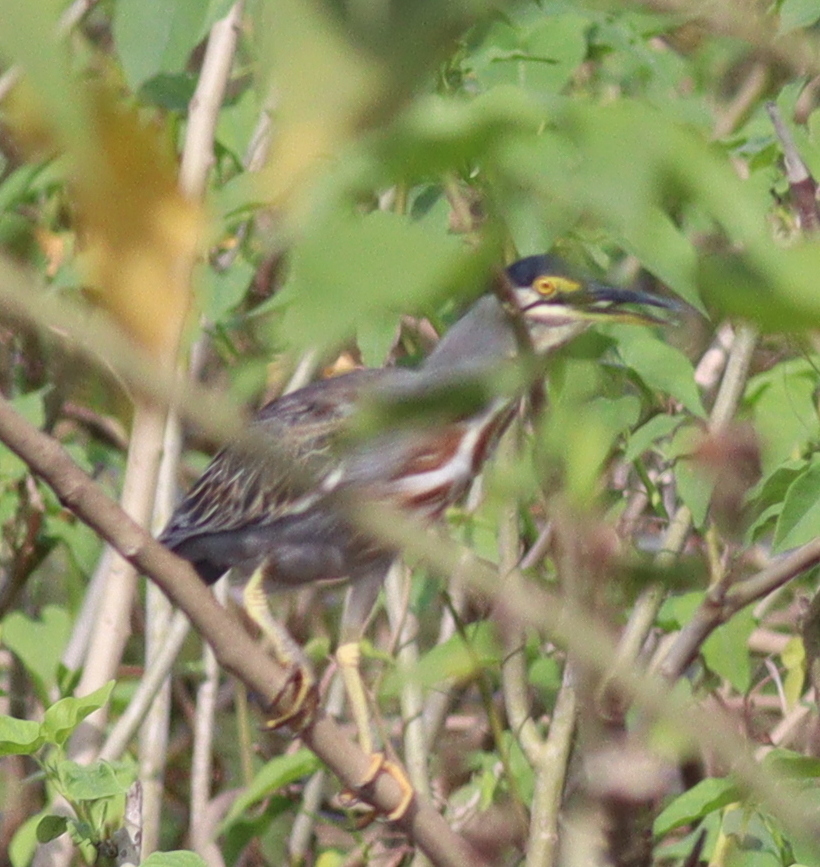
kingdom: Animalia
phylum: Chordata
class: Aves
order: Pelecaniformes
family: Ardeidae
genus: Butorides
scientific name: Butorides striata
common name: Striated heron
